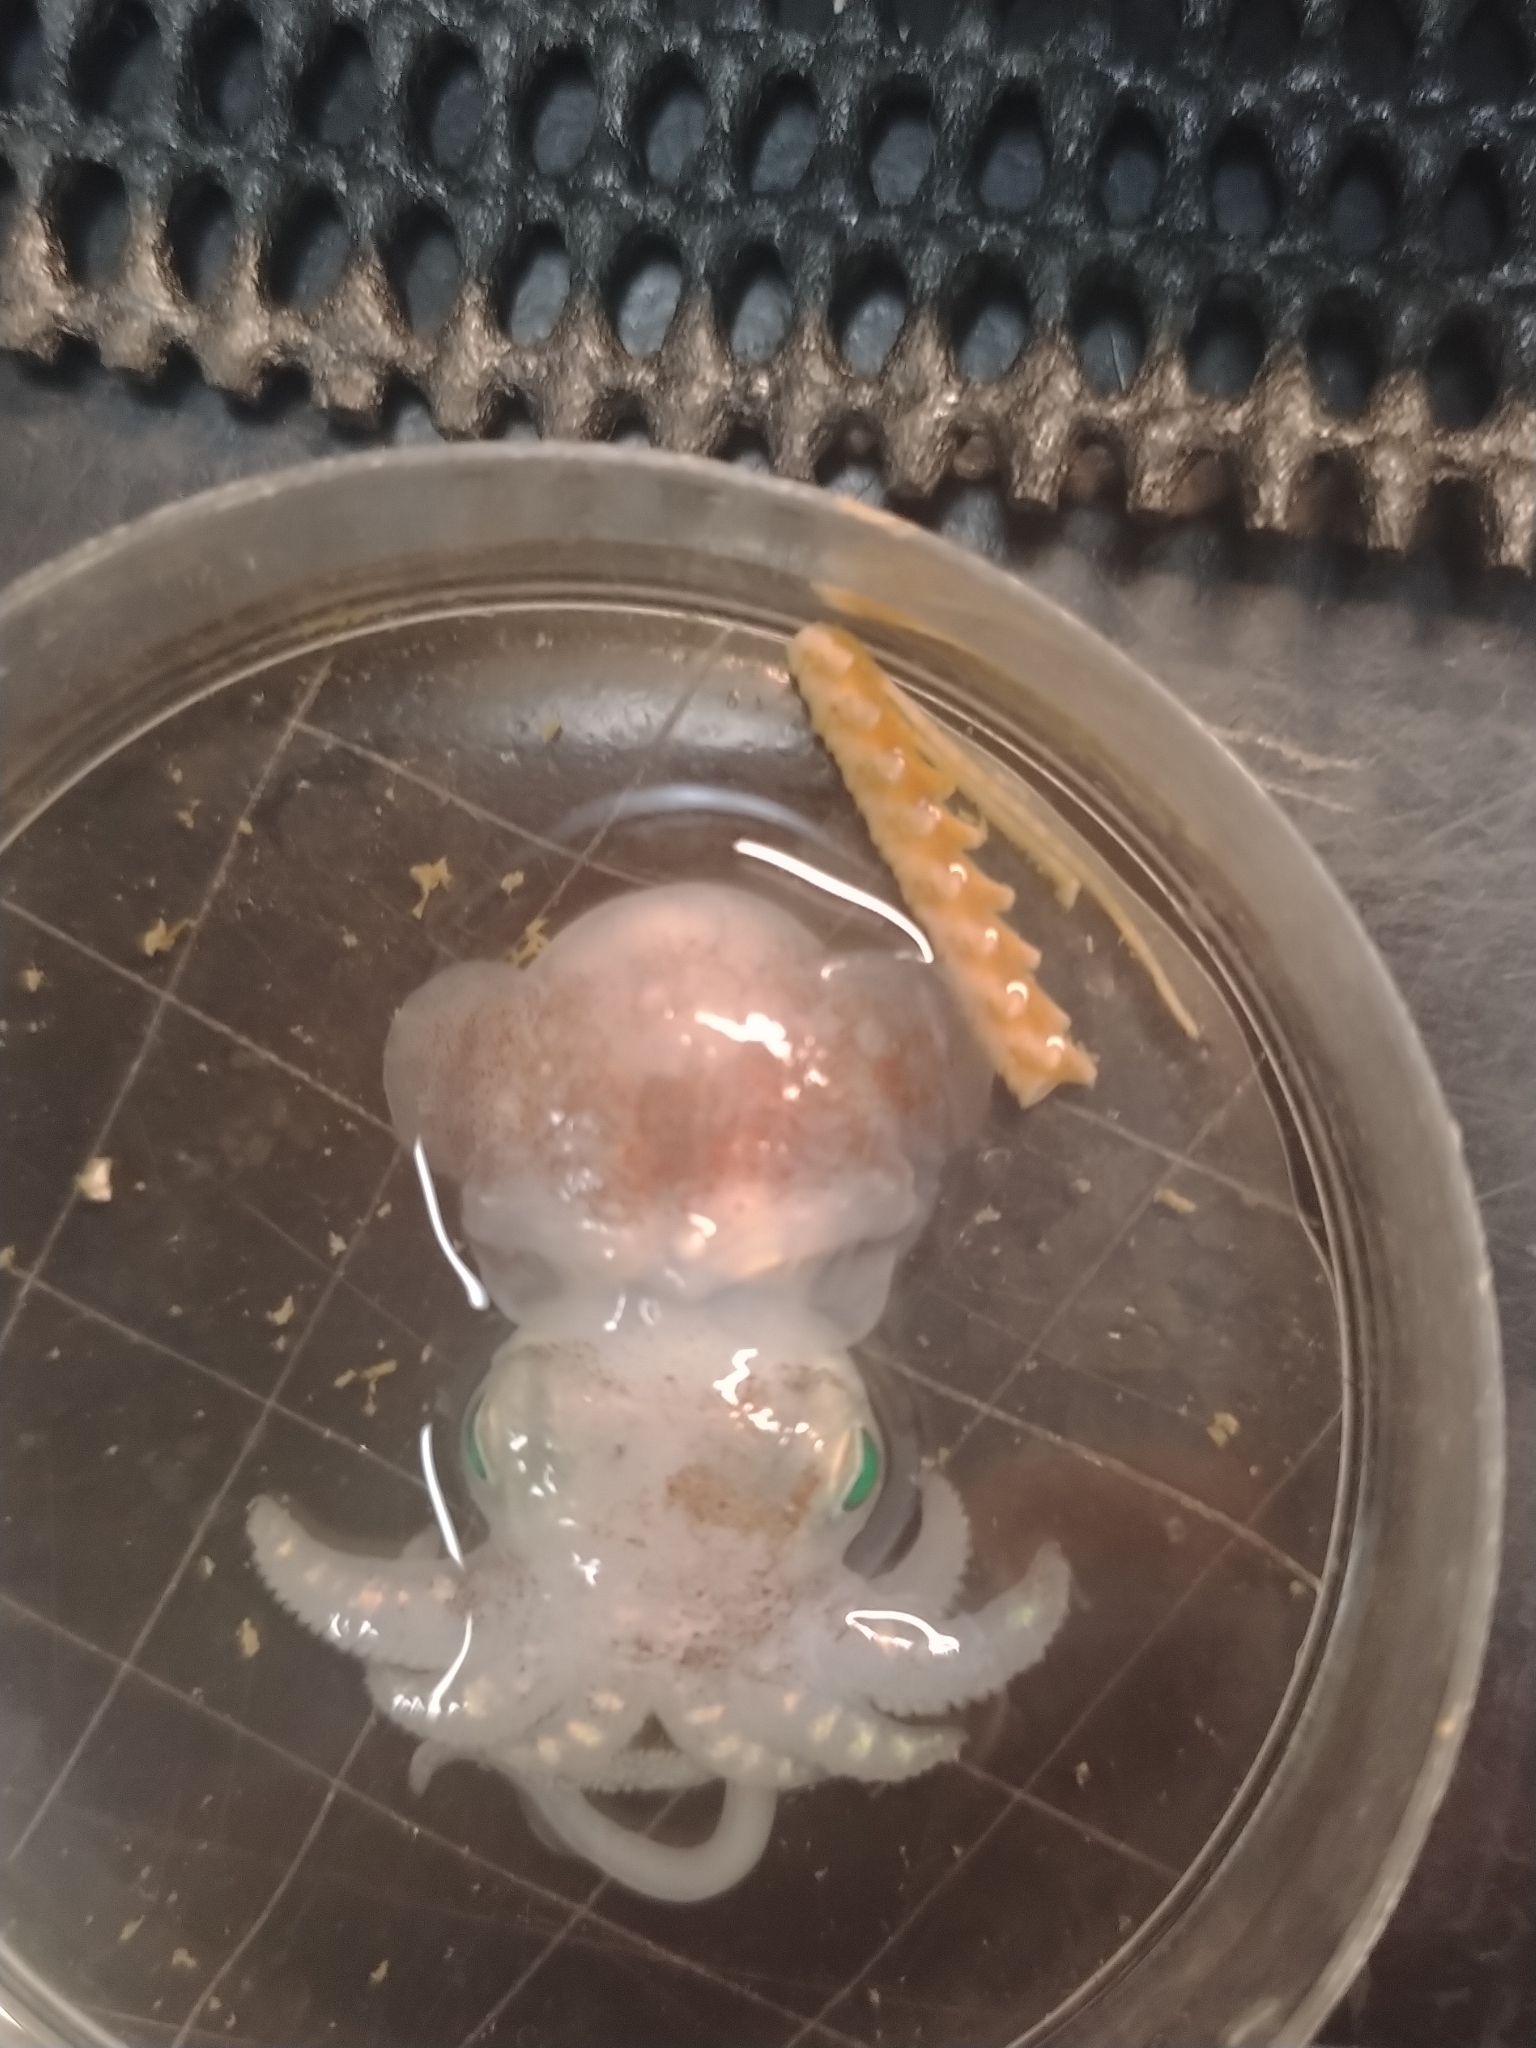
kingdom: Animalia
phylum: Mollusca
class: Cephalopoda
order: Sepiida
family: Sepiolidae
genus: Rossia
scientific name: Rossia palpebrosa
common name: Warty bobtail squid
